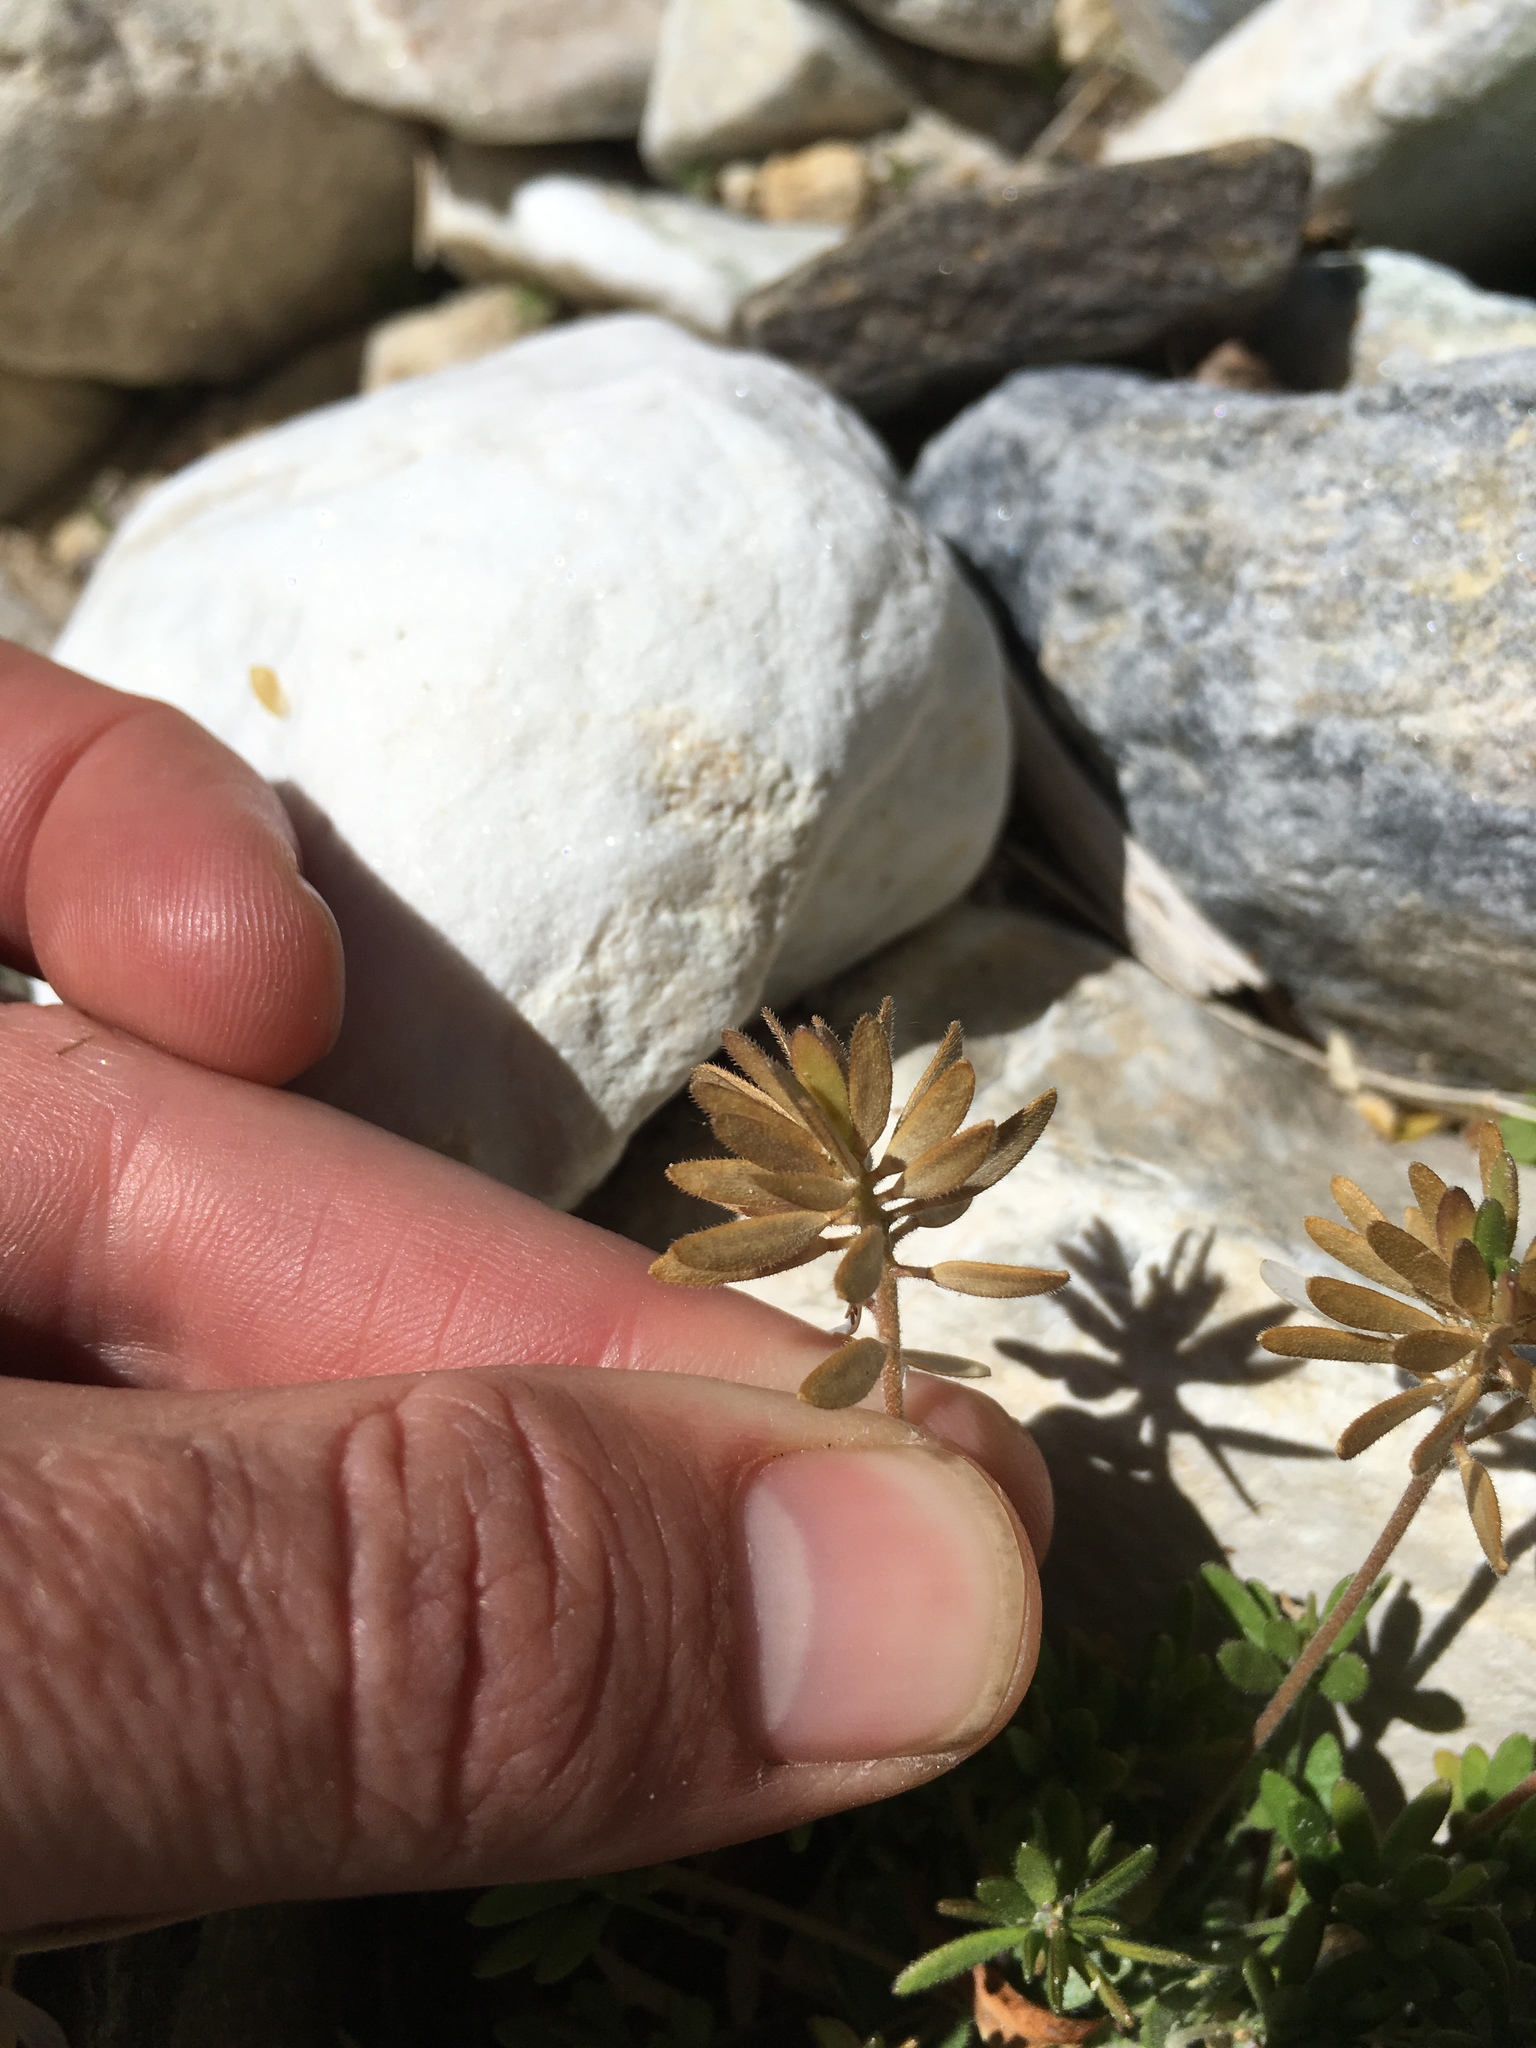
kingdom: Plantae
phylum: Tracheophyta
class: Magnoliopsida
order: Brassicales
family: Brassicaceae
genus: Tomostima
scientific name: Tomostima cuneifolia
